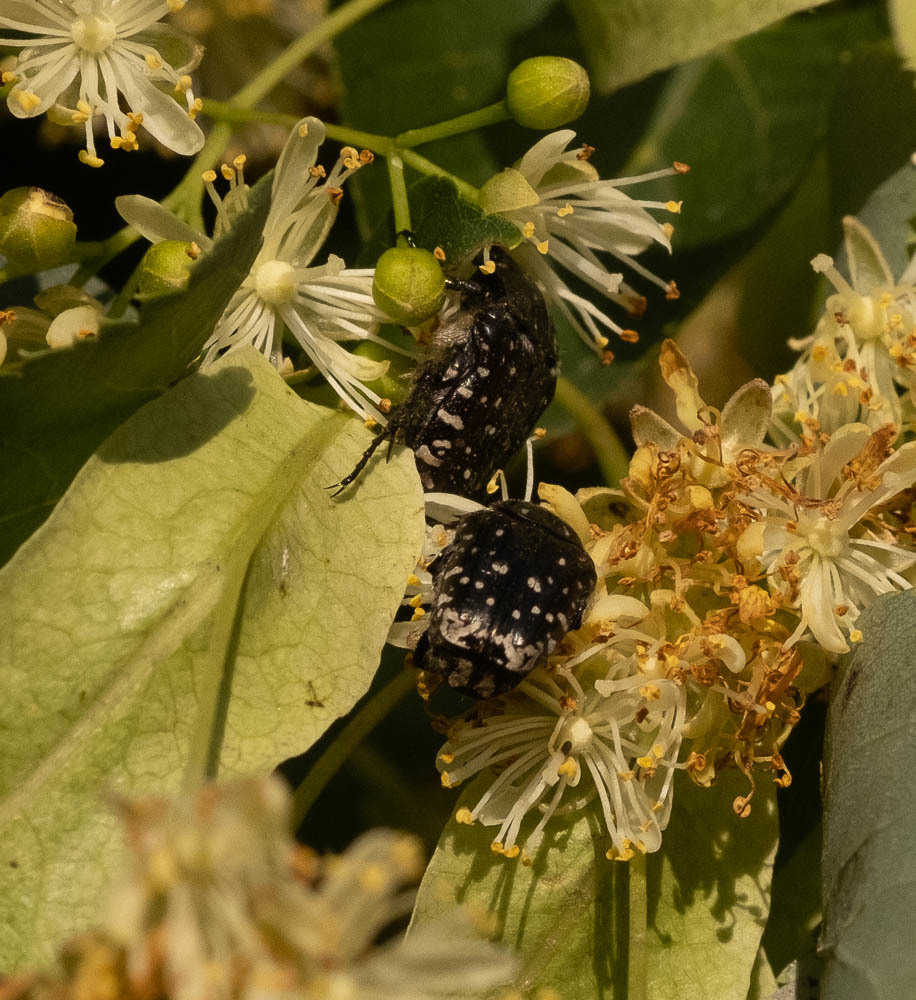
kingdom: Animalia
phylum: Arthropoda
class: Insecta
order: Coleoptera
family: Scarabaeidae
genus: Oxythyrea
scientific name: Oxythyrea funesta
